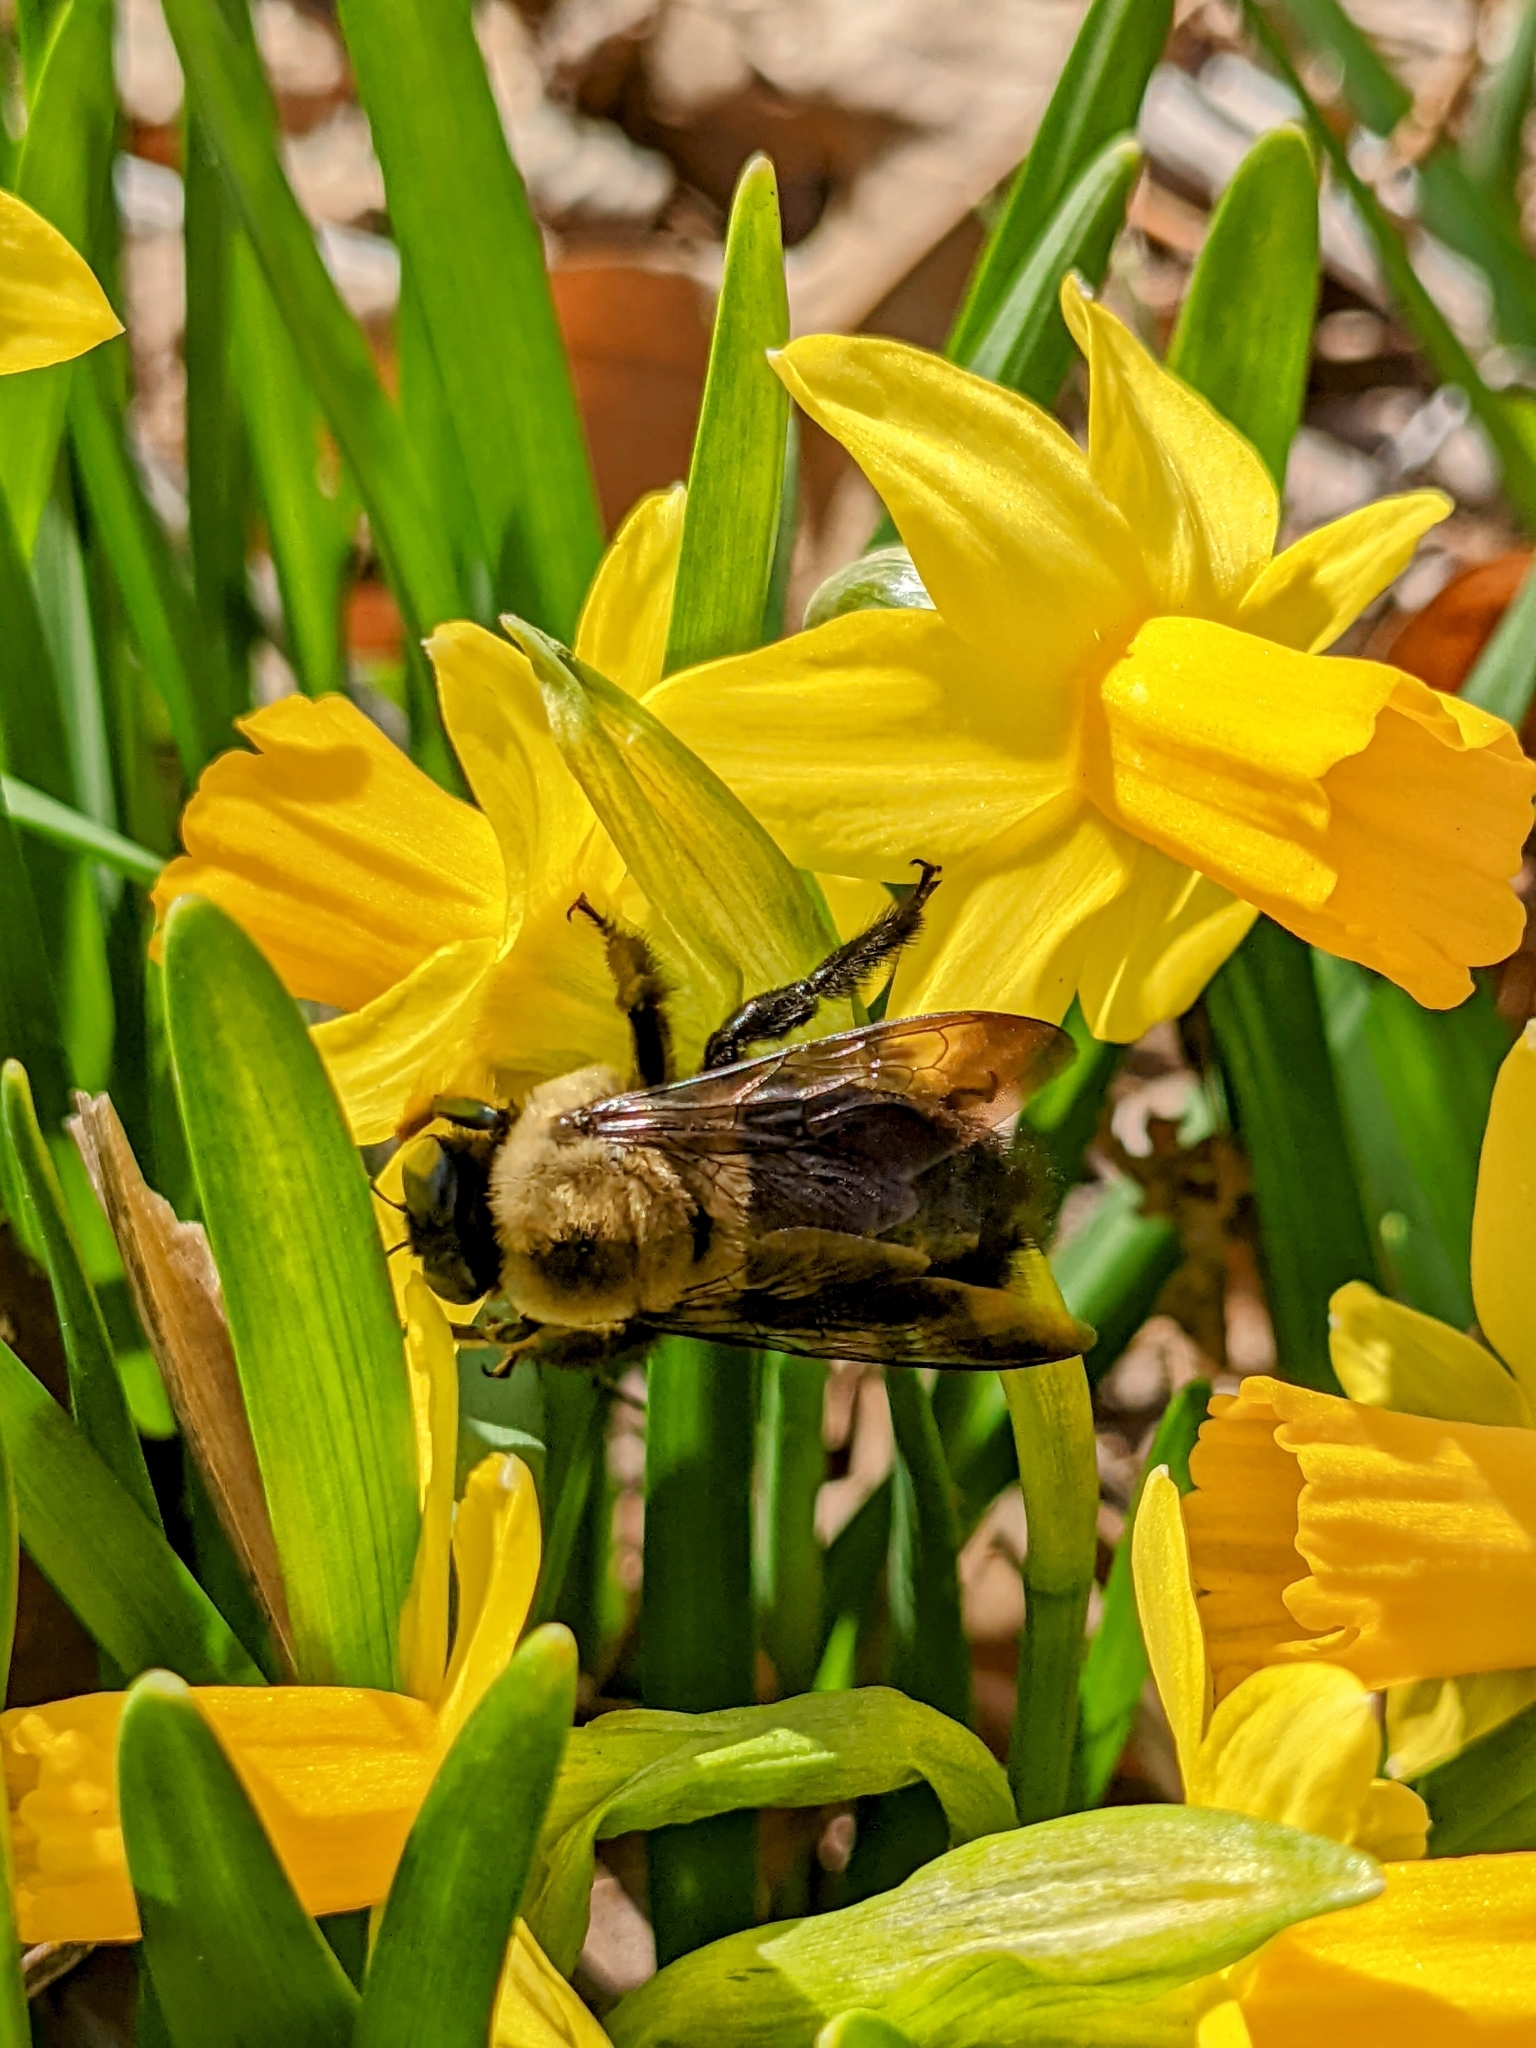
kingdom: Animalia
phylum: Arthropoda
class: Insecta
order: Hymenoptera
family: Apidae
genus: Xylocopa
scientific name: Xylocopa virginica
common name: Carpenter bee
